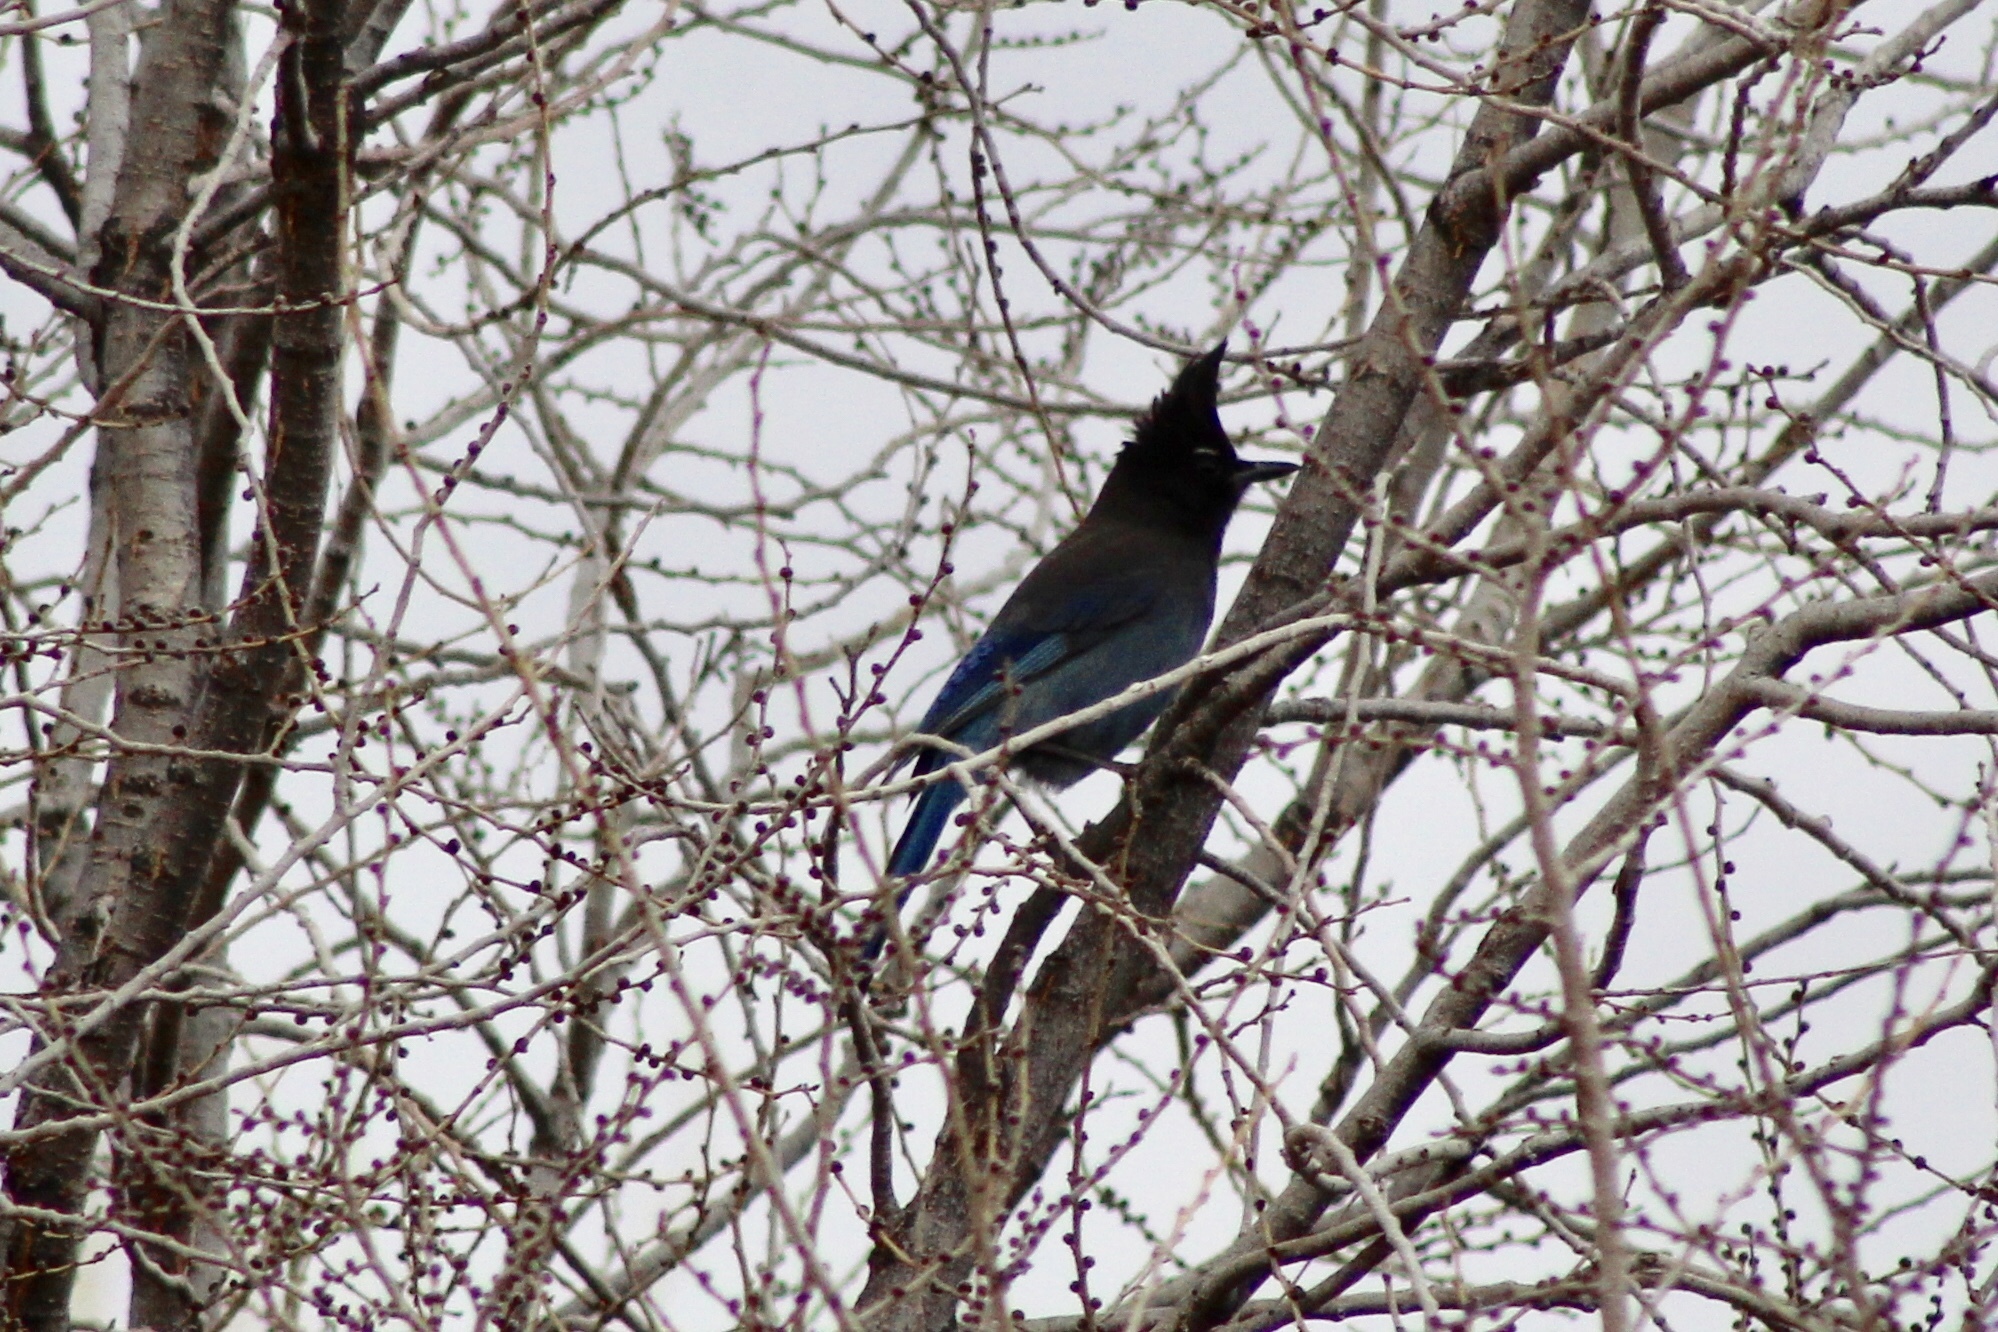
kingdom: Animalia
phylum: Chordata
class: Aves
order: Passeriformes
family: Corvidae
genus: Cyanocitta
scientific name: Cyanocitta stelleri
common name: Steller's jay
